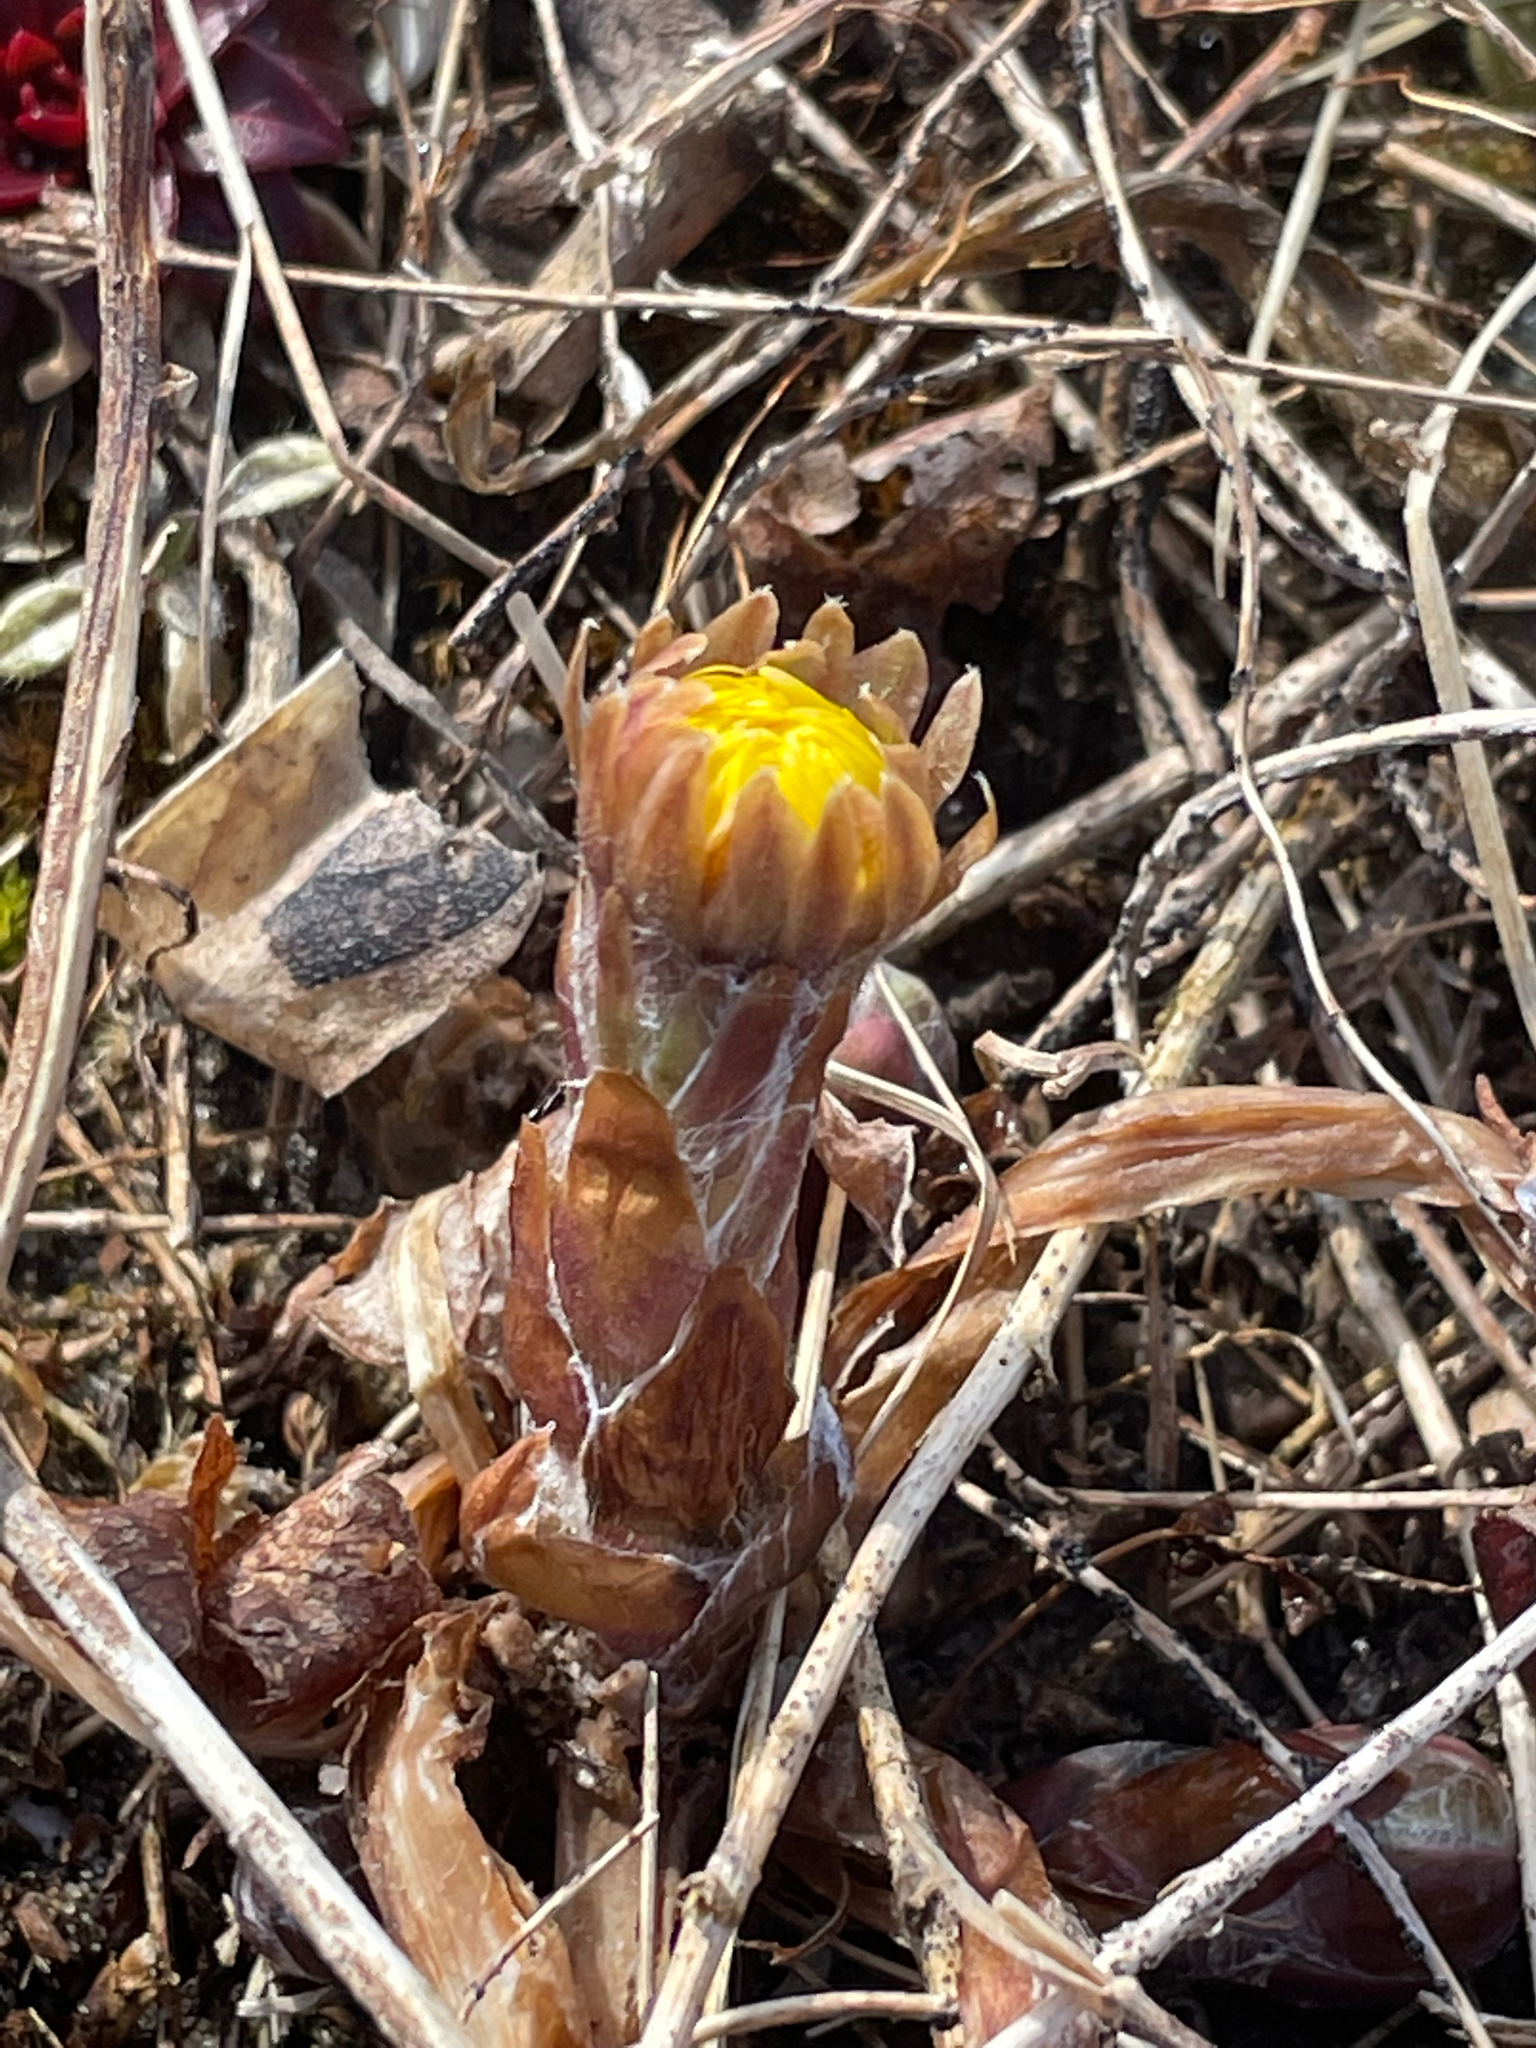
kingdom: Plantae
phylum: Tracheophyta
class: Magnoliopsida
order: Asterales
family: Asteraceae
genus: Tussilago
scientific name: Tussilago farfara
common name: Coltsfoot
